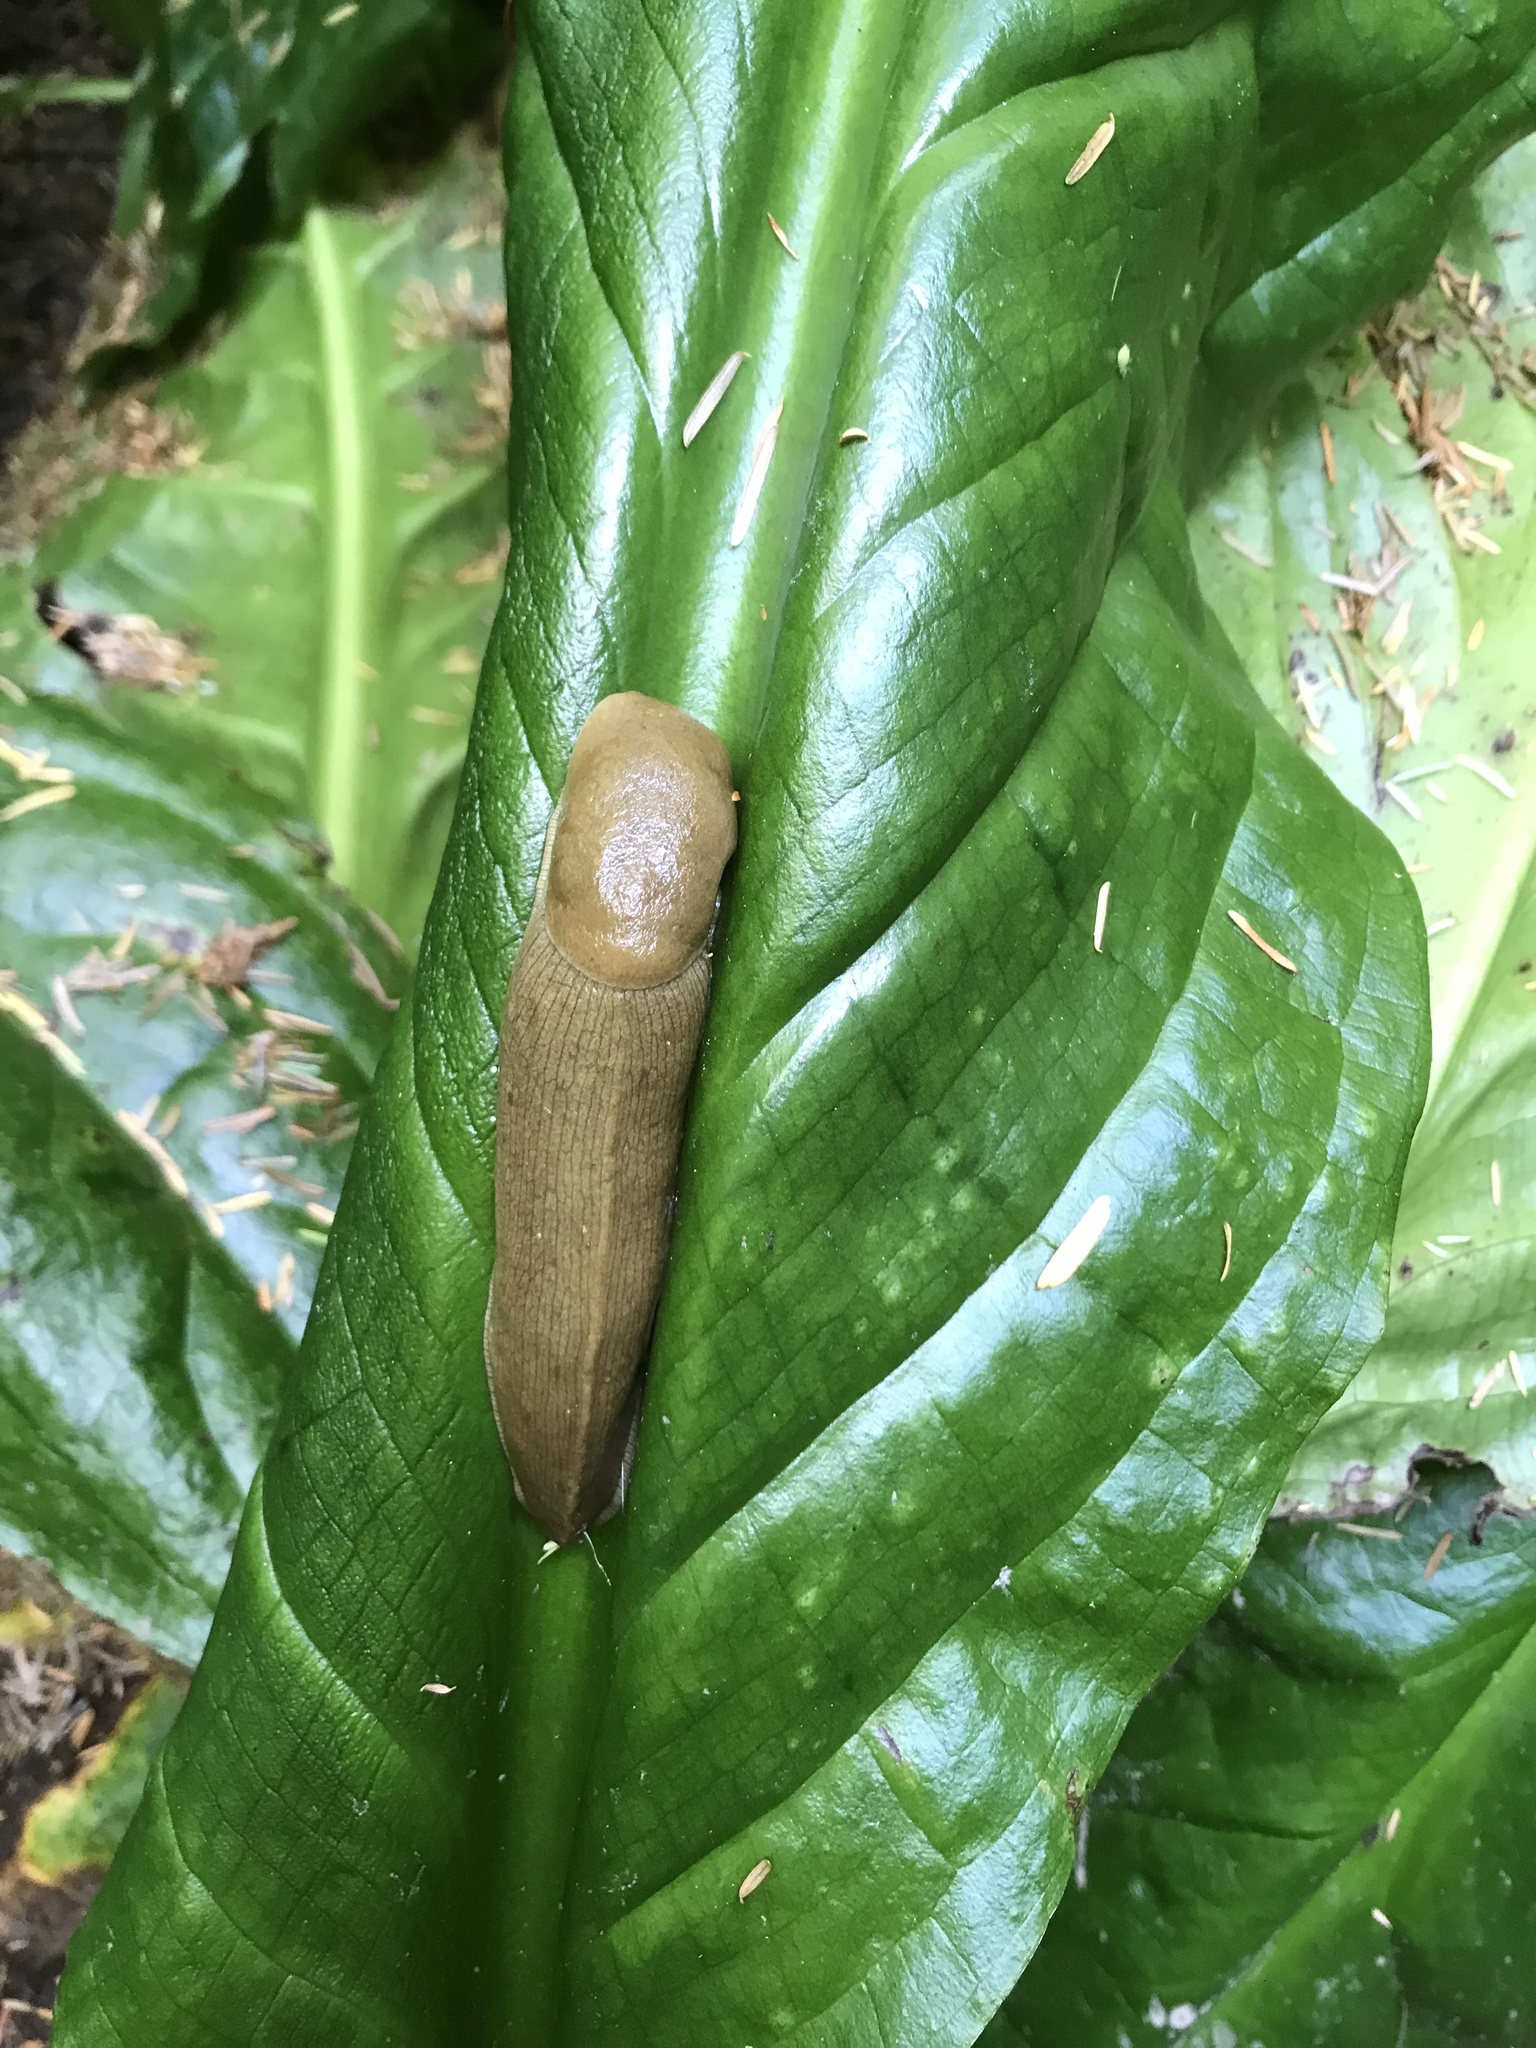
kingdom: Animalia
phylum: Mollusca
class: Gastropoda
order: Stylommatophora
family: Ariolimacidae
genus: Ariolimax
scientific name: Ariolimax columbianus
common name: Pacific banana slug
